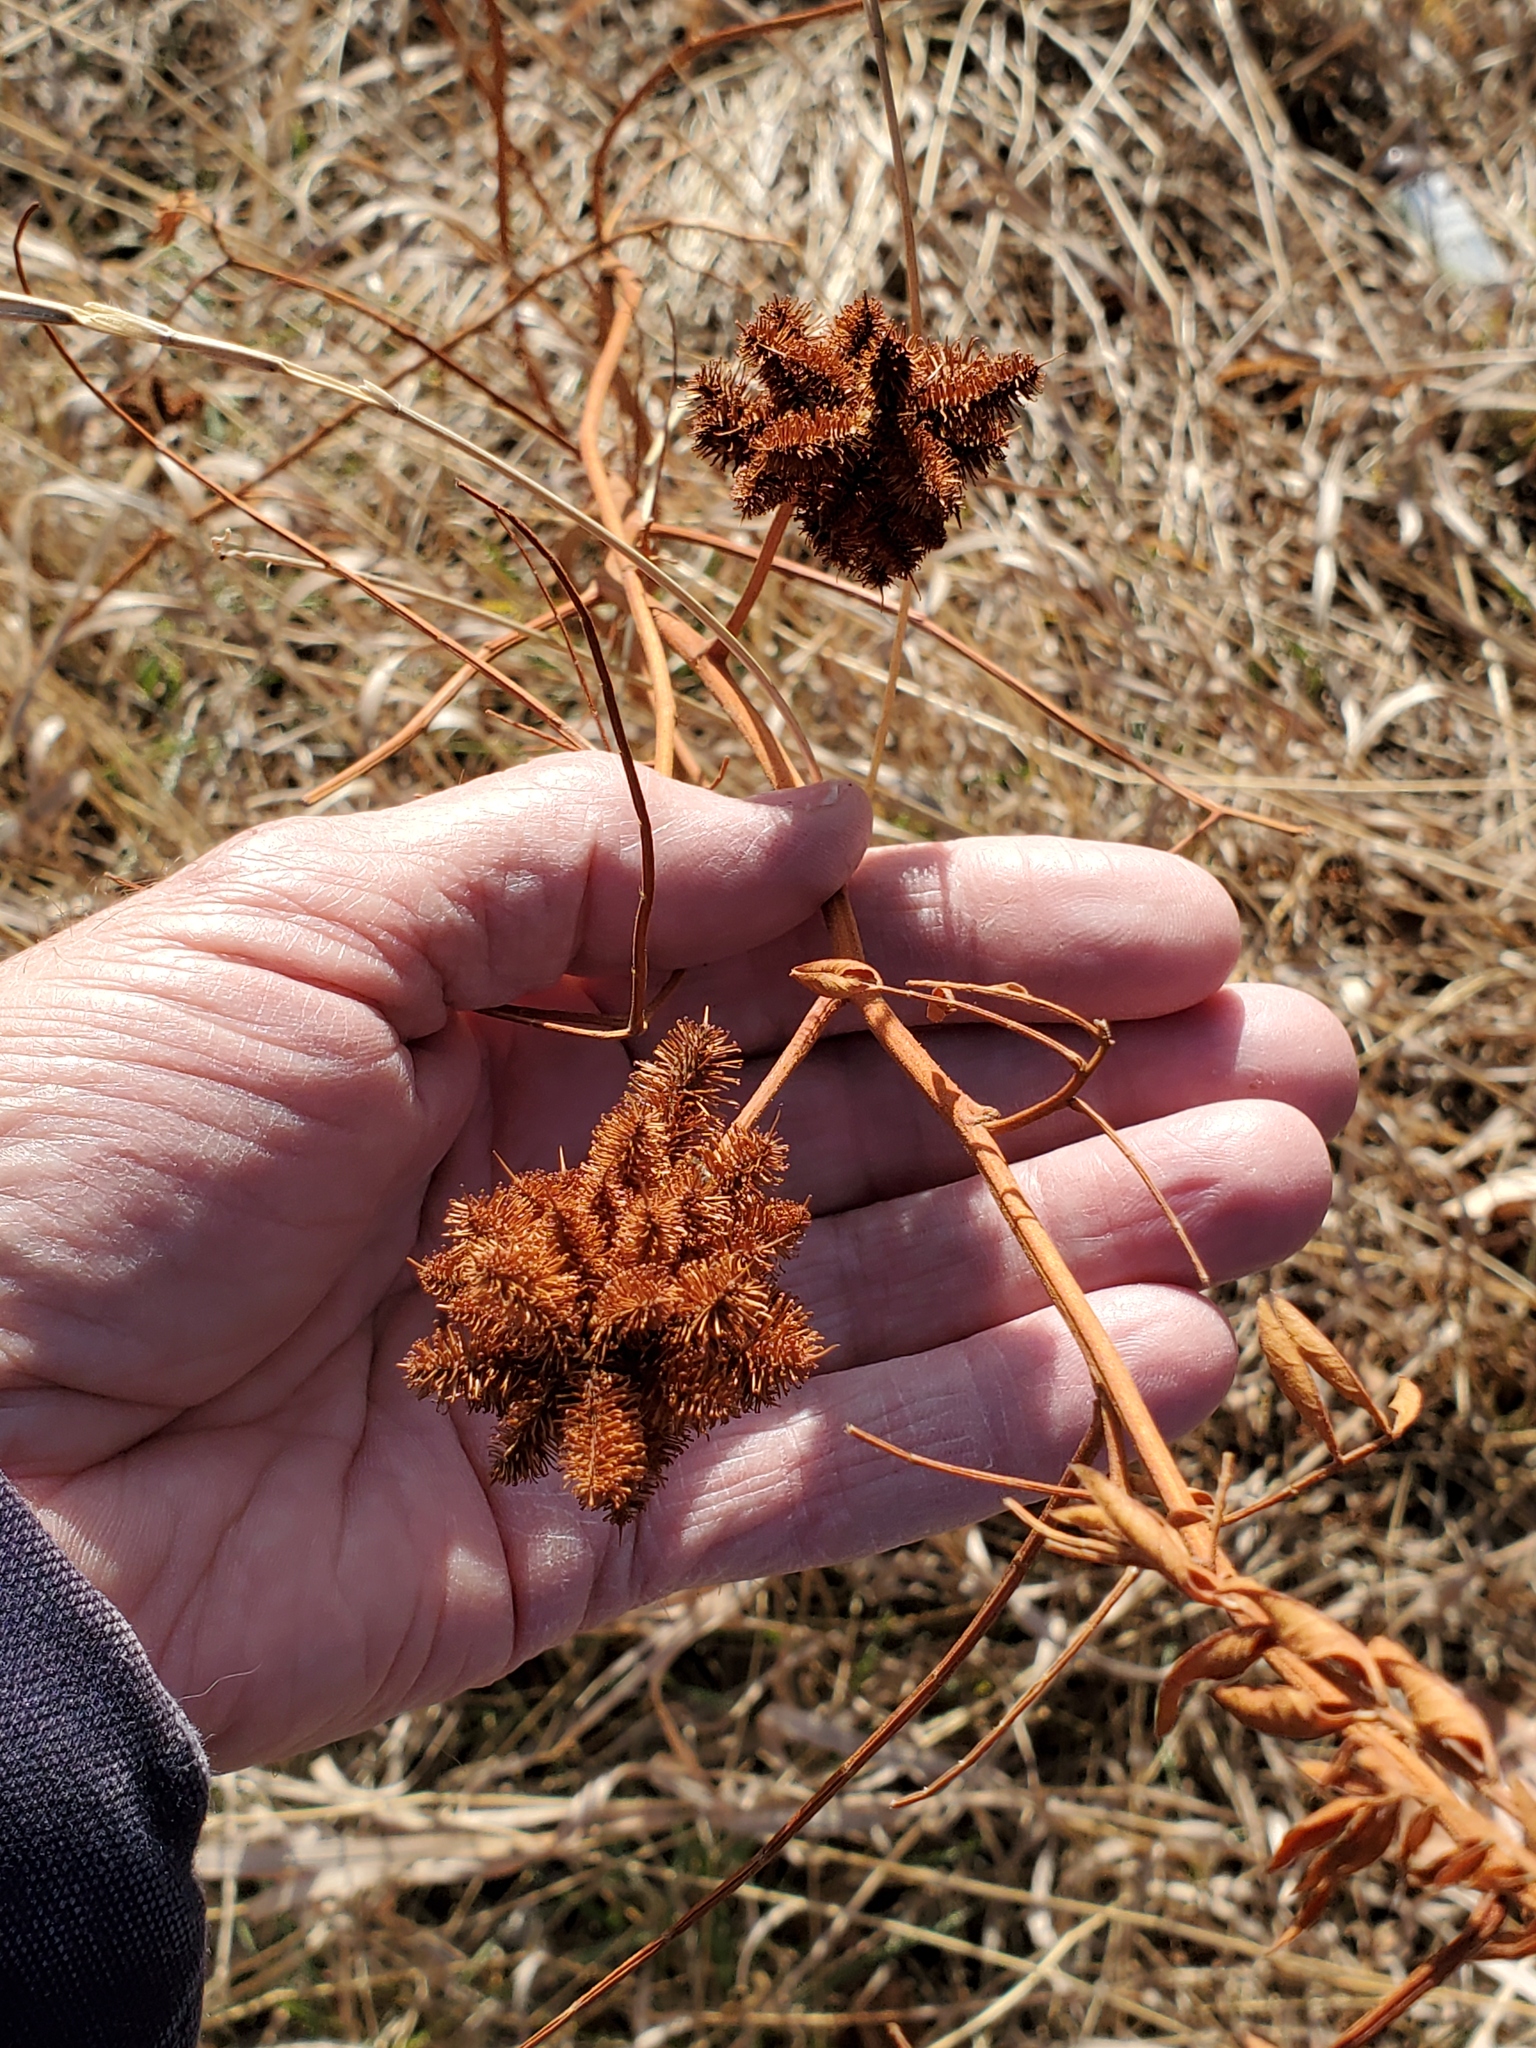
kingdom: Plantae
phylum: Tracheophyta
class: Magnoliopsida
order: Fabales
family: Fabaceae
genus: Glycyrrhiza
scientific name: Glycyrrhiza lepidota
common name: American liquorice
